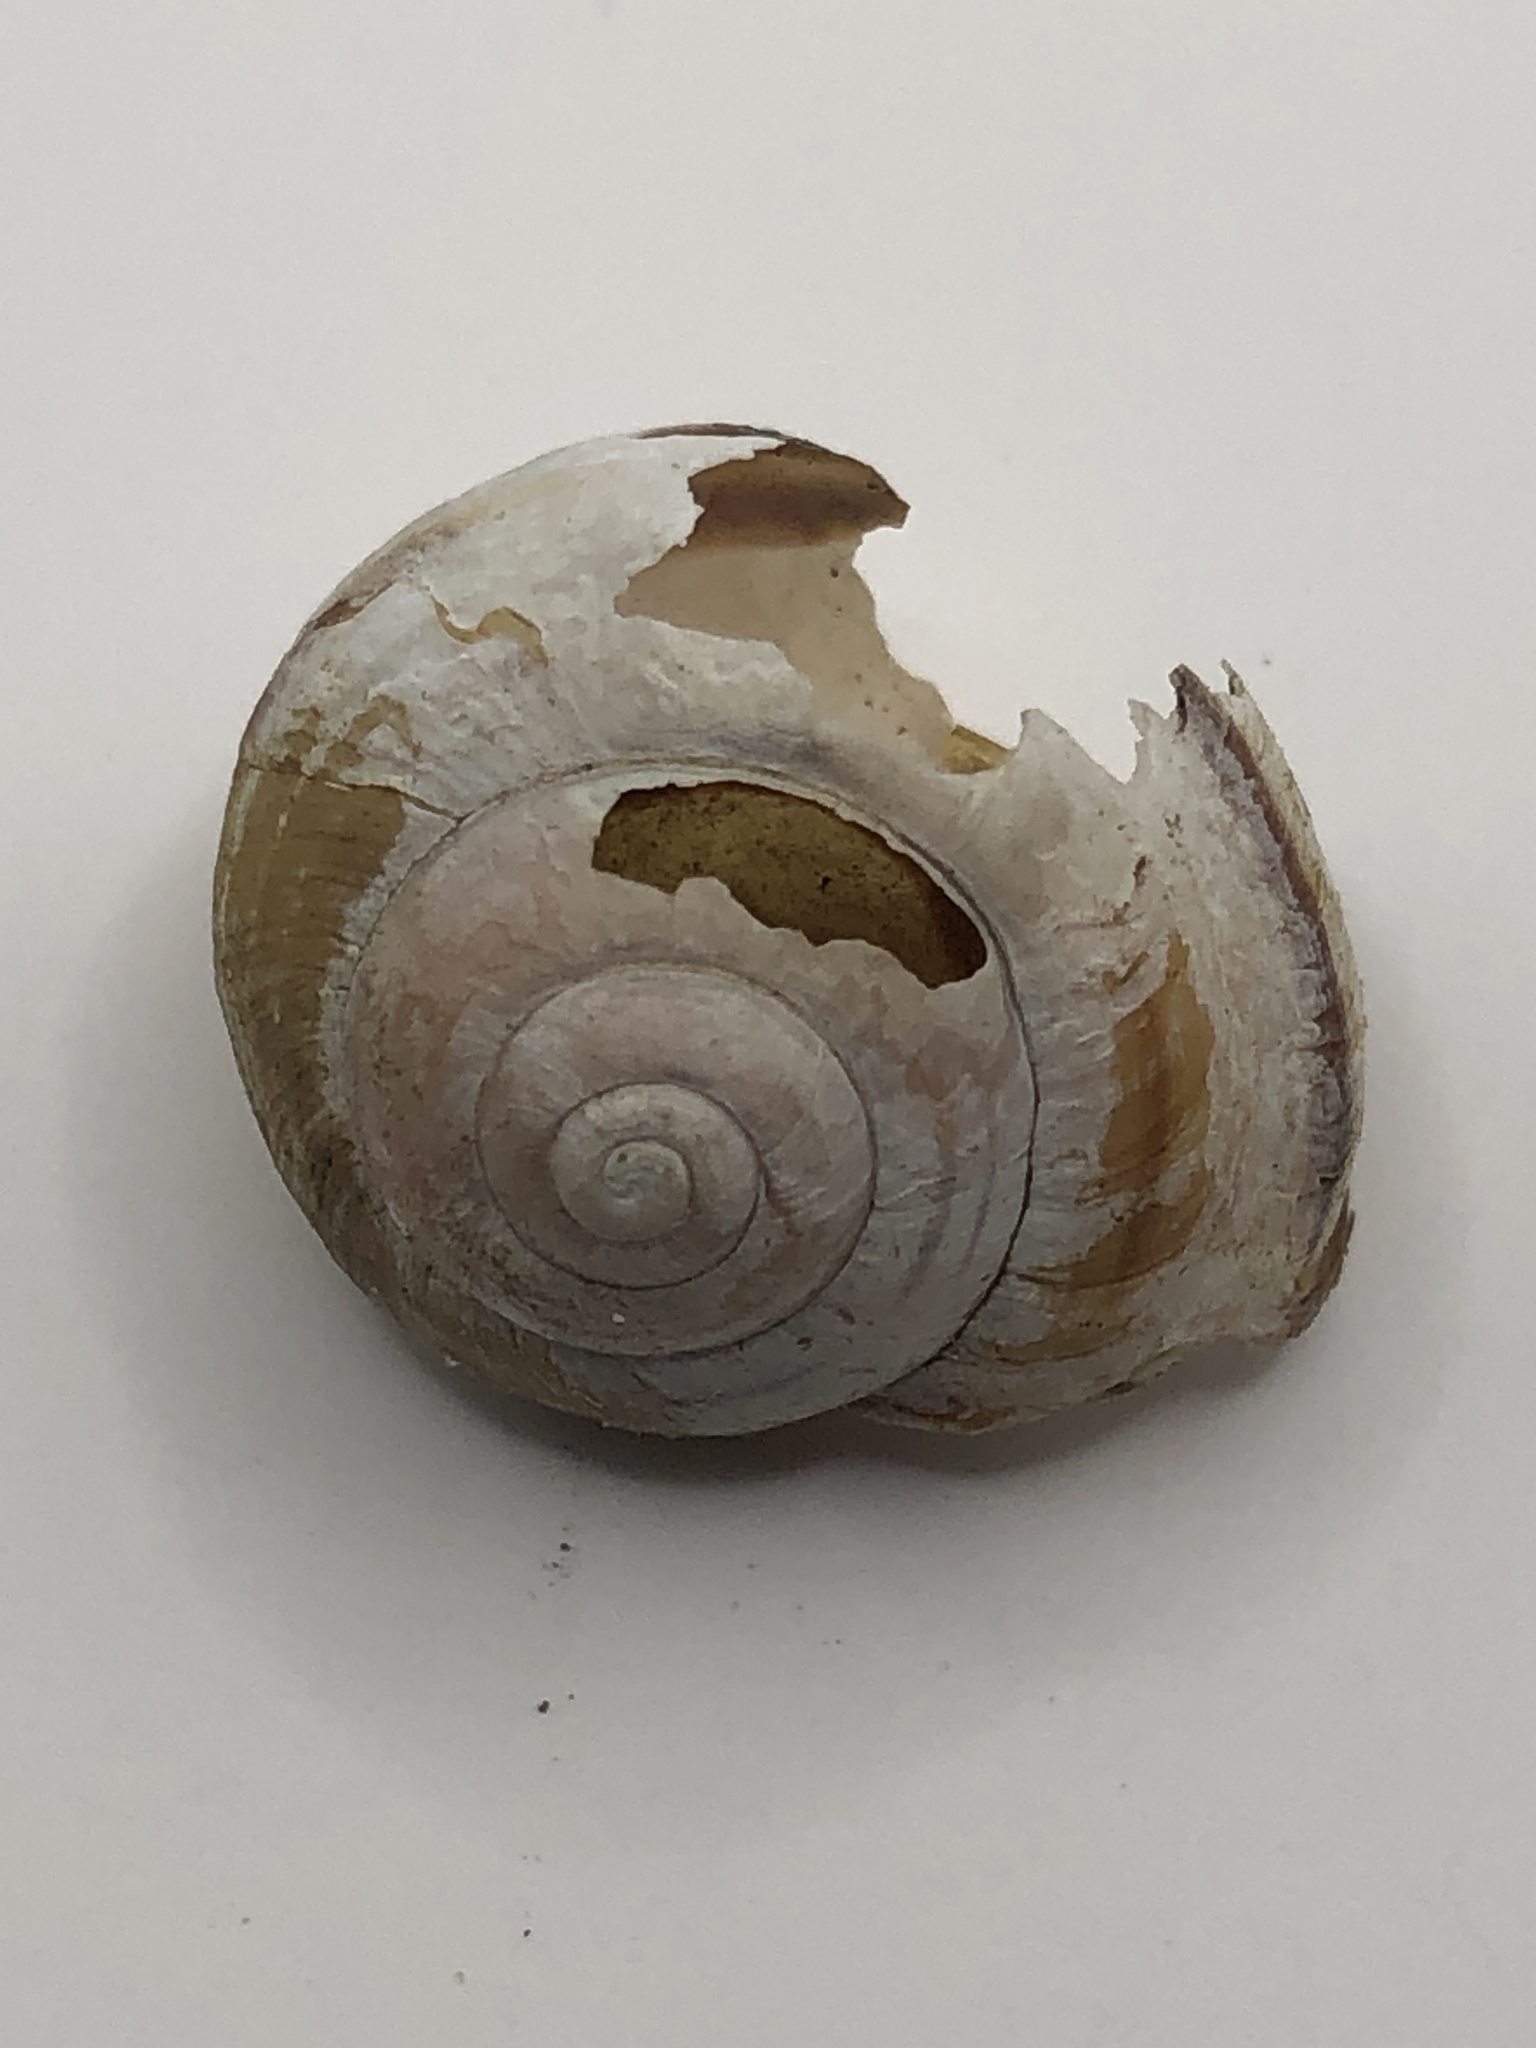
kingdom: Animalia
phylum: Mollusca
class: Gastropoda
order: Stylommatophora
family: Helicidae
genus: Cepaea
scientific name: Cepaea nemoralis
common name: Grovesnail
